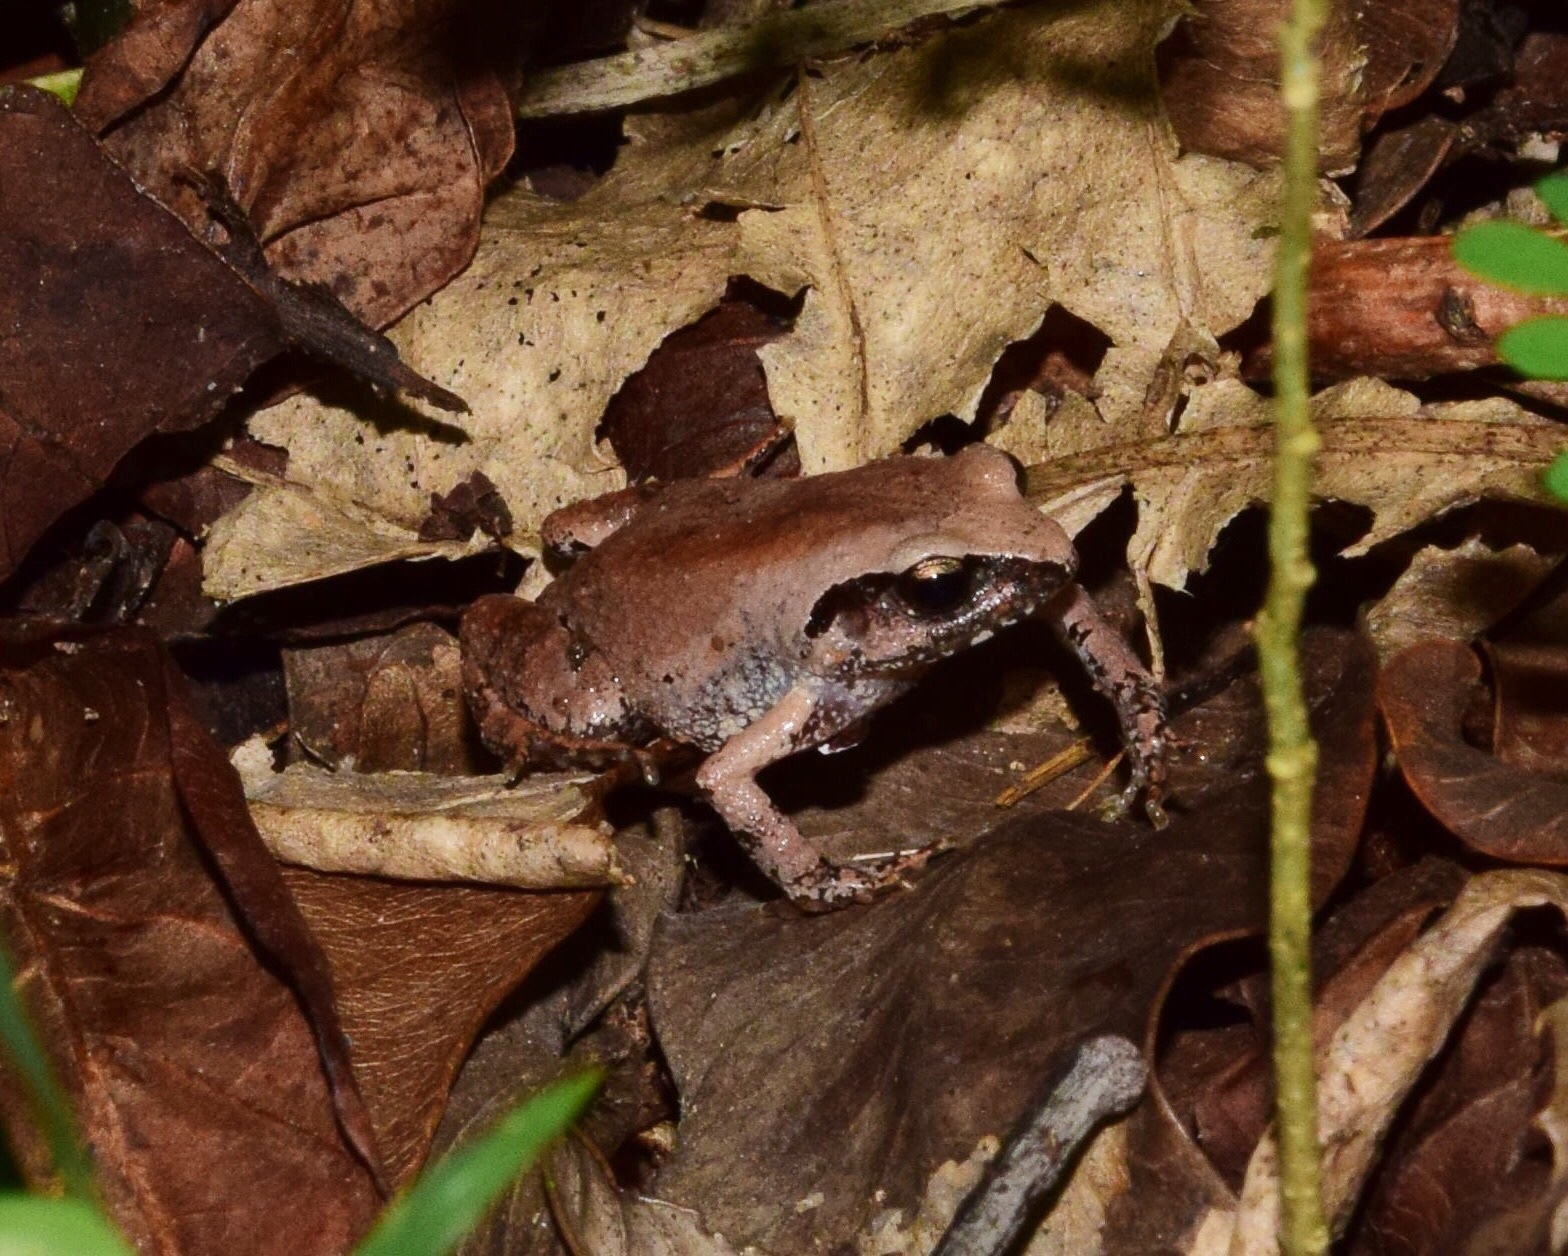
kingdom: Animalia
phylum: Chordata
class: Amphibia
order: Anura
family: Arthroleptidae
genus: Arthroleptis
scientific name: Arthroleptis wahlbergii
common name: Bush squeaker
